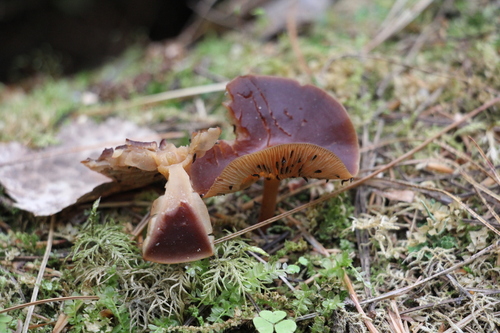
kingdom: Fungi
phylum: Basidiomycota
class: Agaricomycetes
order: Agaricales
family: Omphalotaceae
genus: Gymnopus
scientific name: Gymnopus ocior
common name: Spring toughshank
